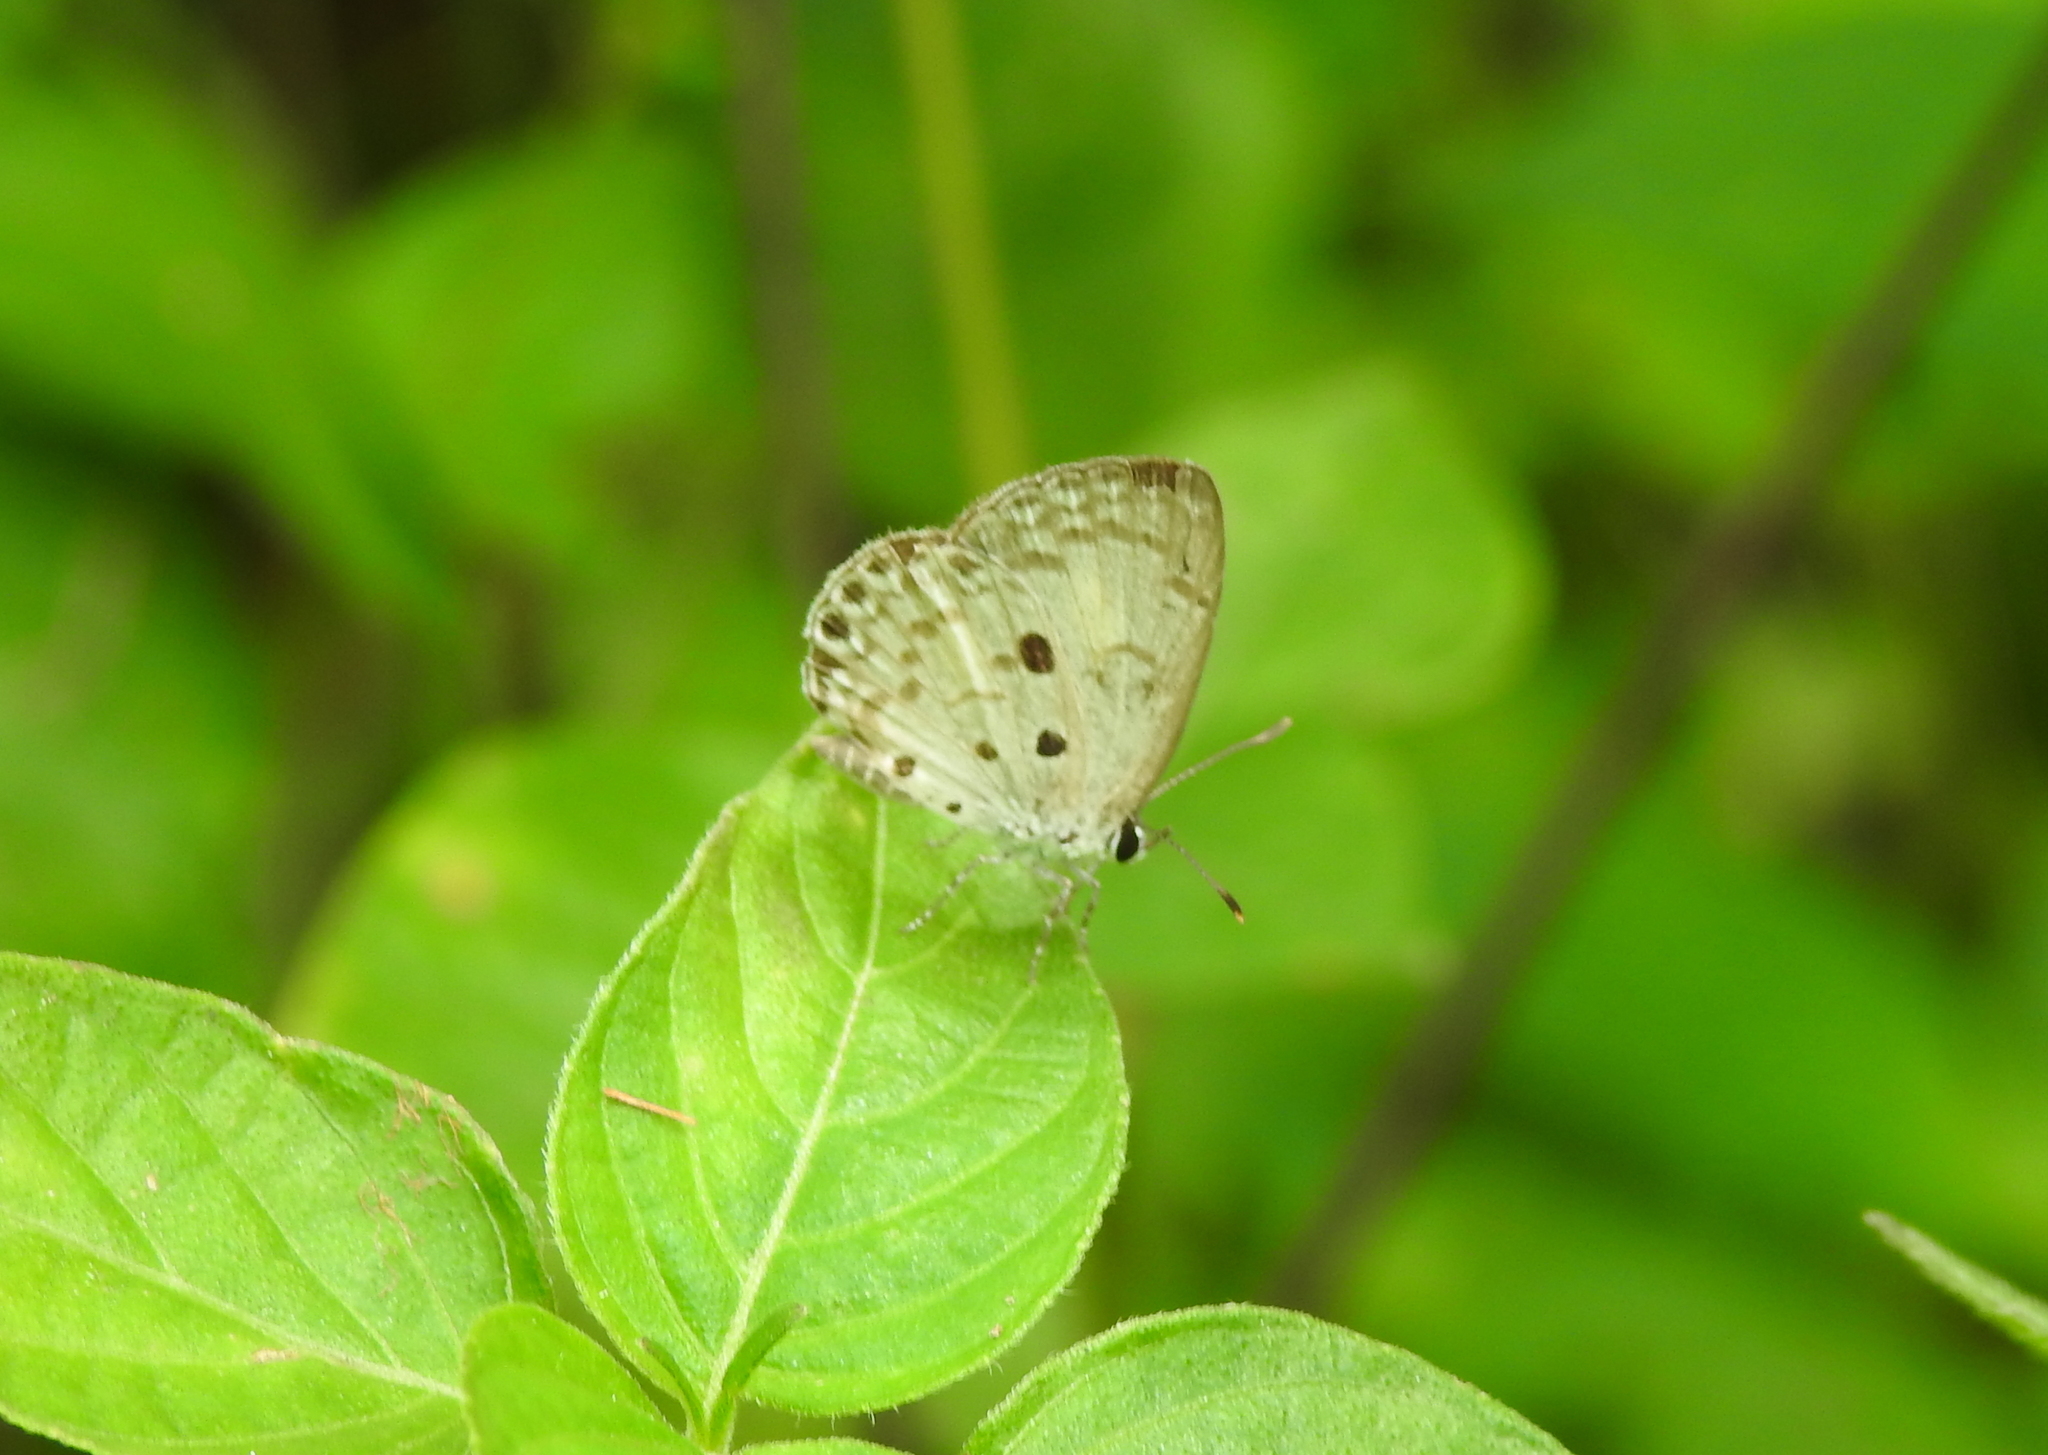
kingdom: Animalia
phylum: Arthropoda
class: Insecta
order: Lepidoptera
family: Lycaenidae
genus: Acytolepis
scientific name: Acytolepis puspa
